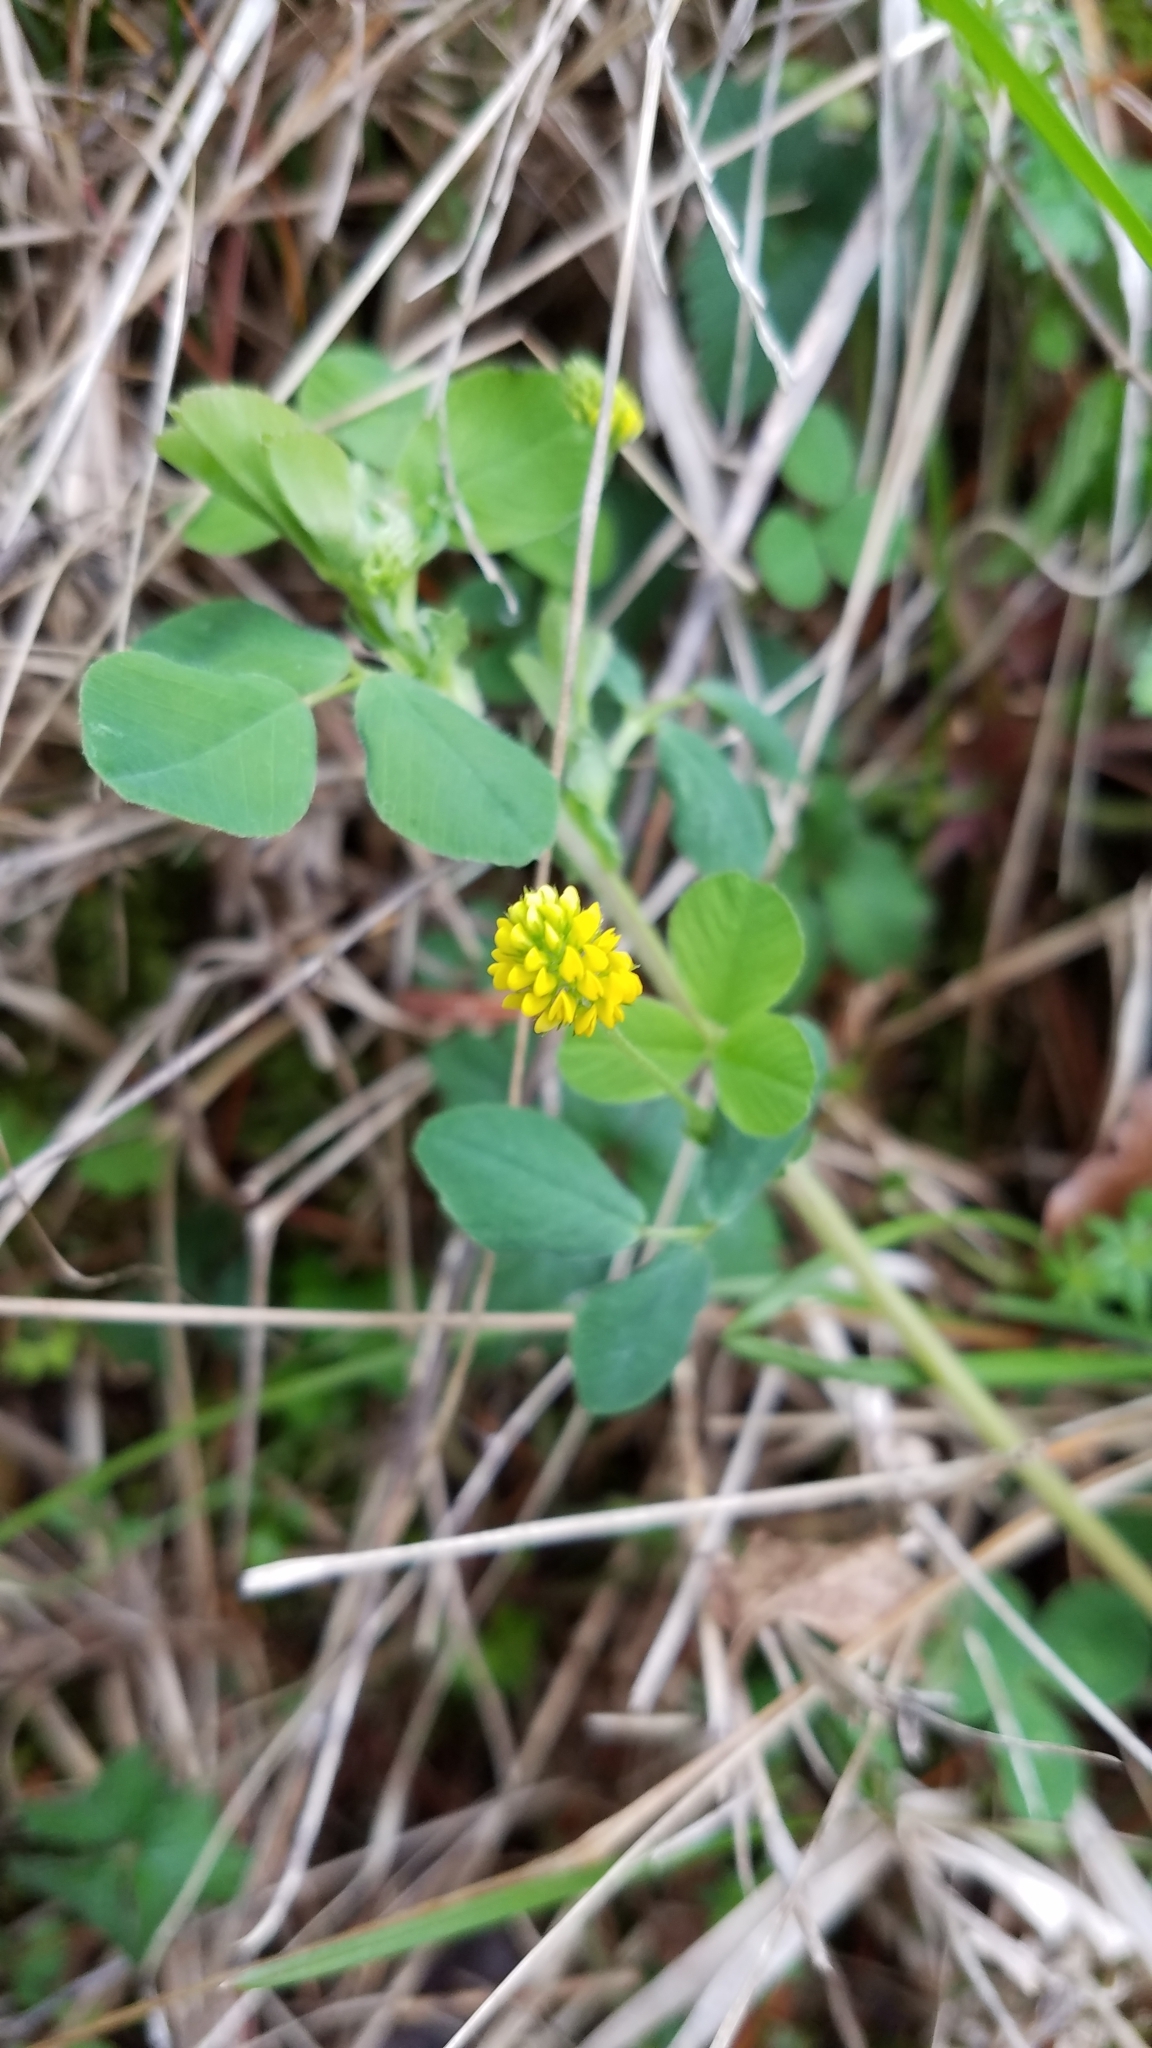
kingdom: Plantae
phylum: Tracheophyta
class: Magnoliopsida
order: Fabales
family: Fabaceae
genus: Medicago
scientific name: Medicago lupulina
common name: Black medick
